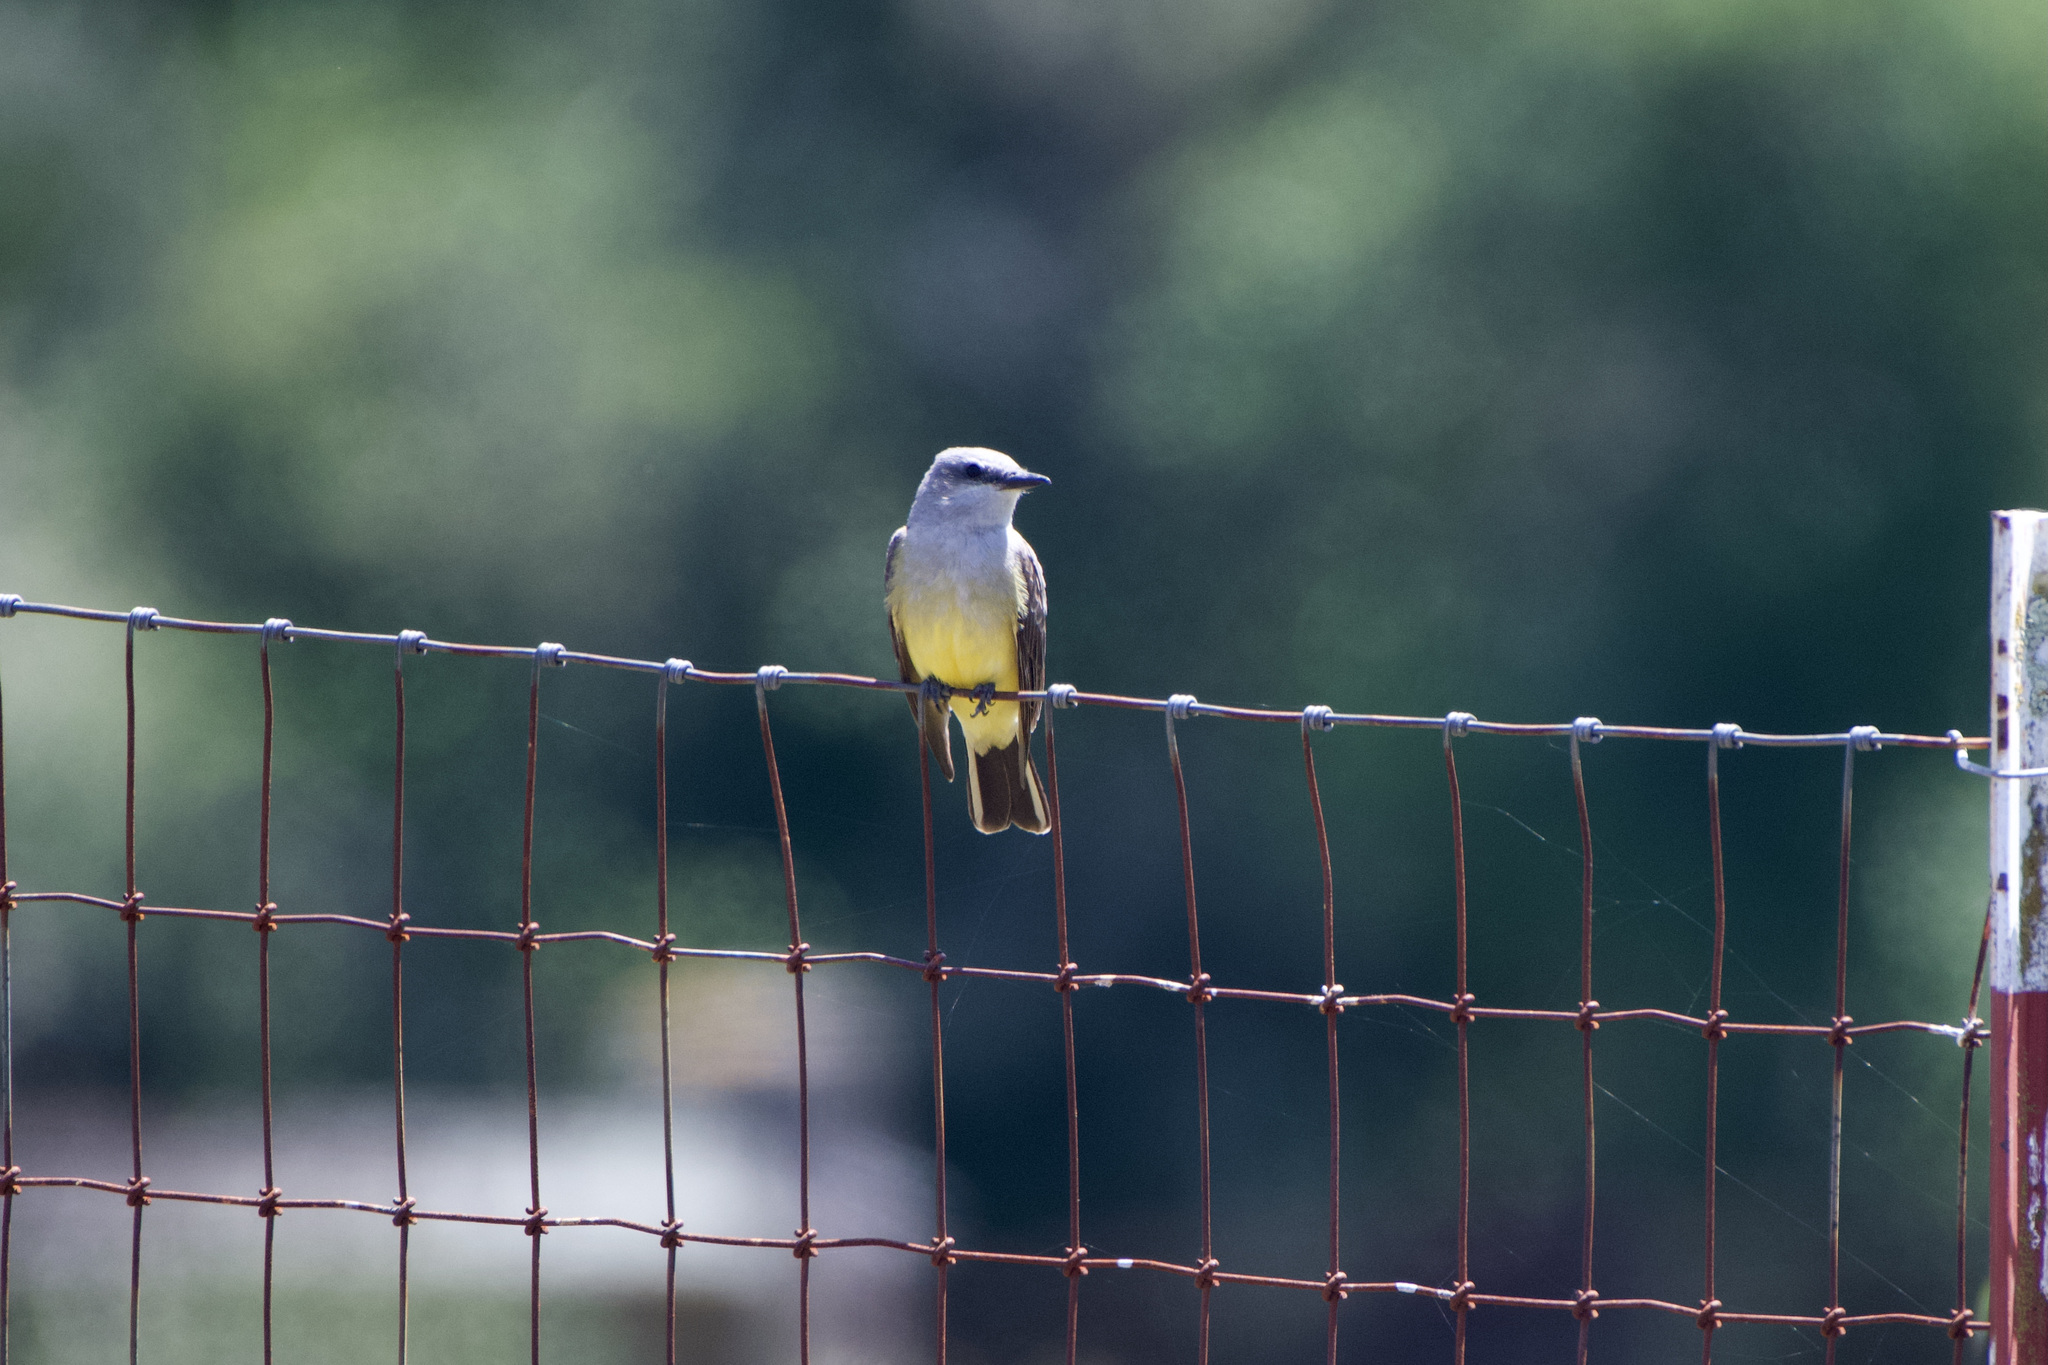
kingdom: Animalia
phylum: Chordata
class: Aves
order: Passeriformes
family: Tyrannidae
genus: Tyrannus
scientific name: Tyrannus verticalis
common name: Western kingbird
